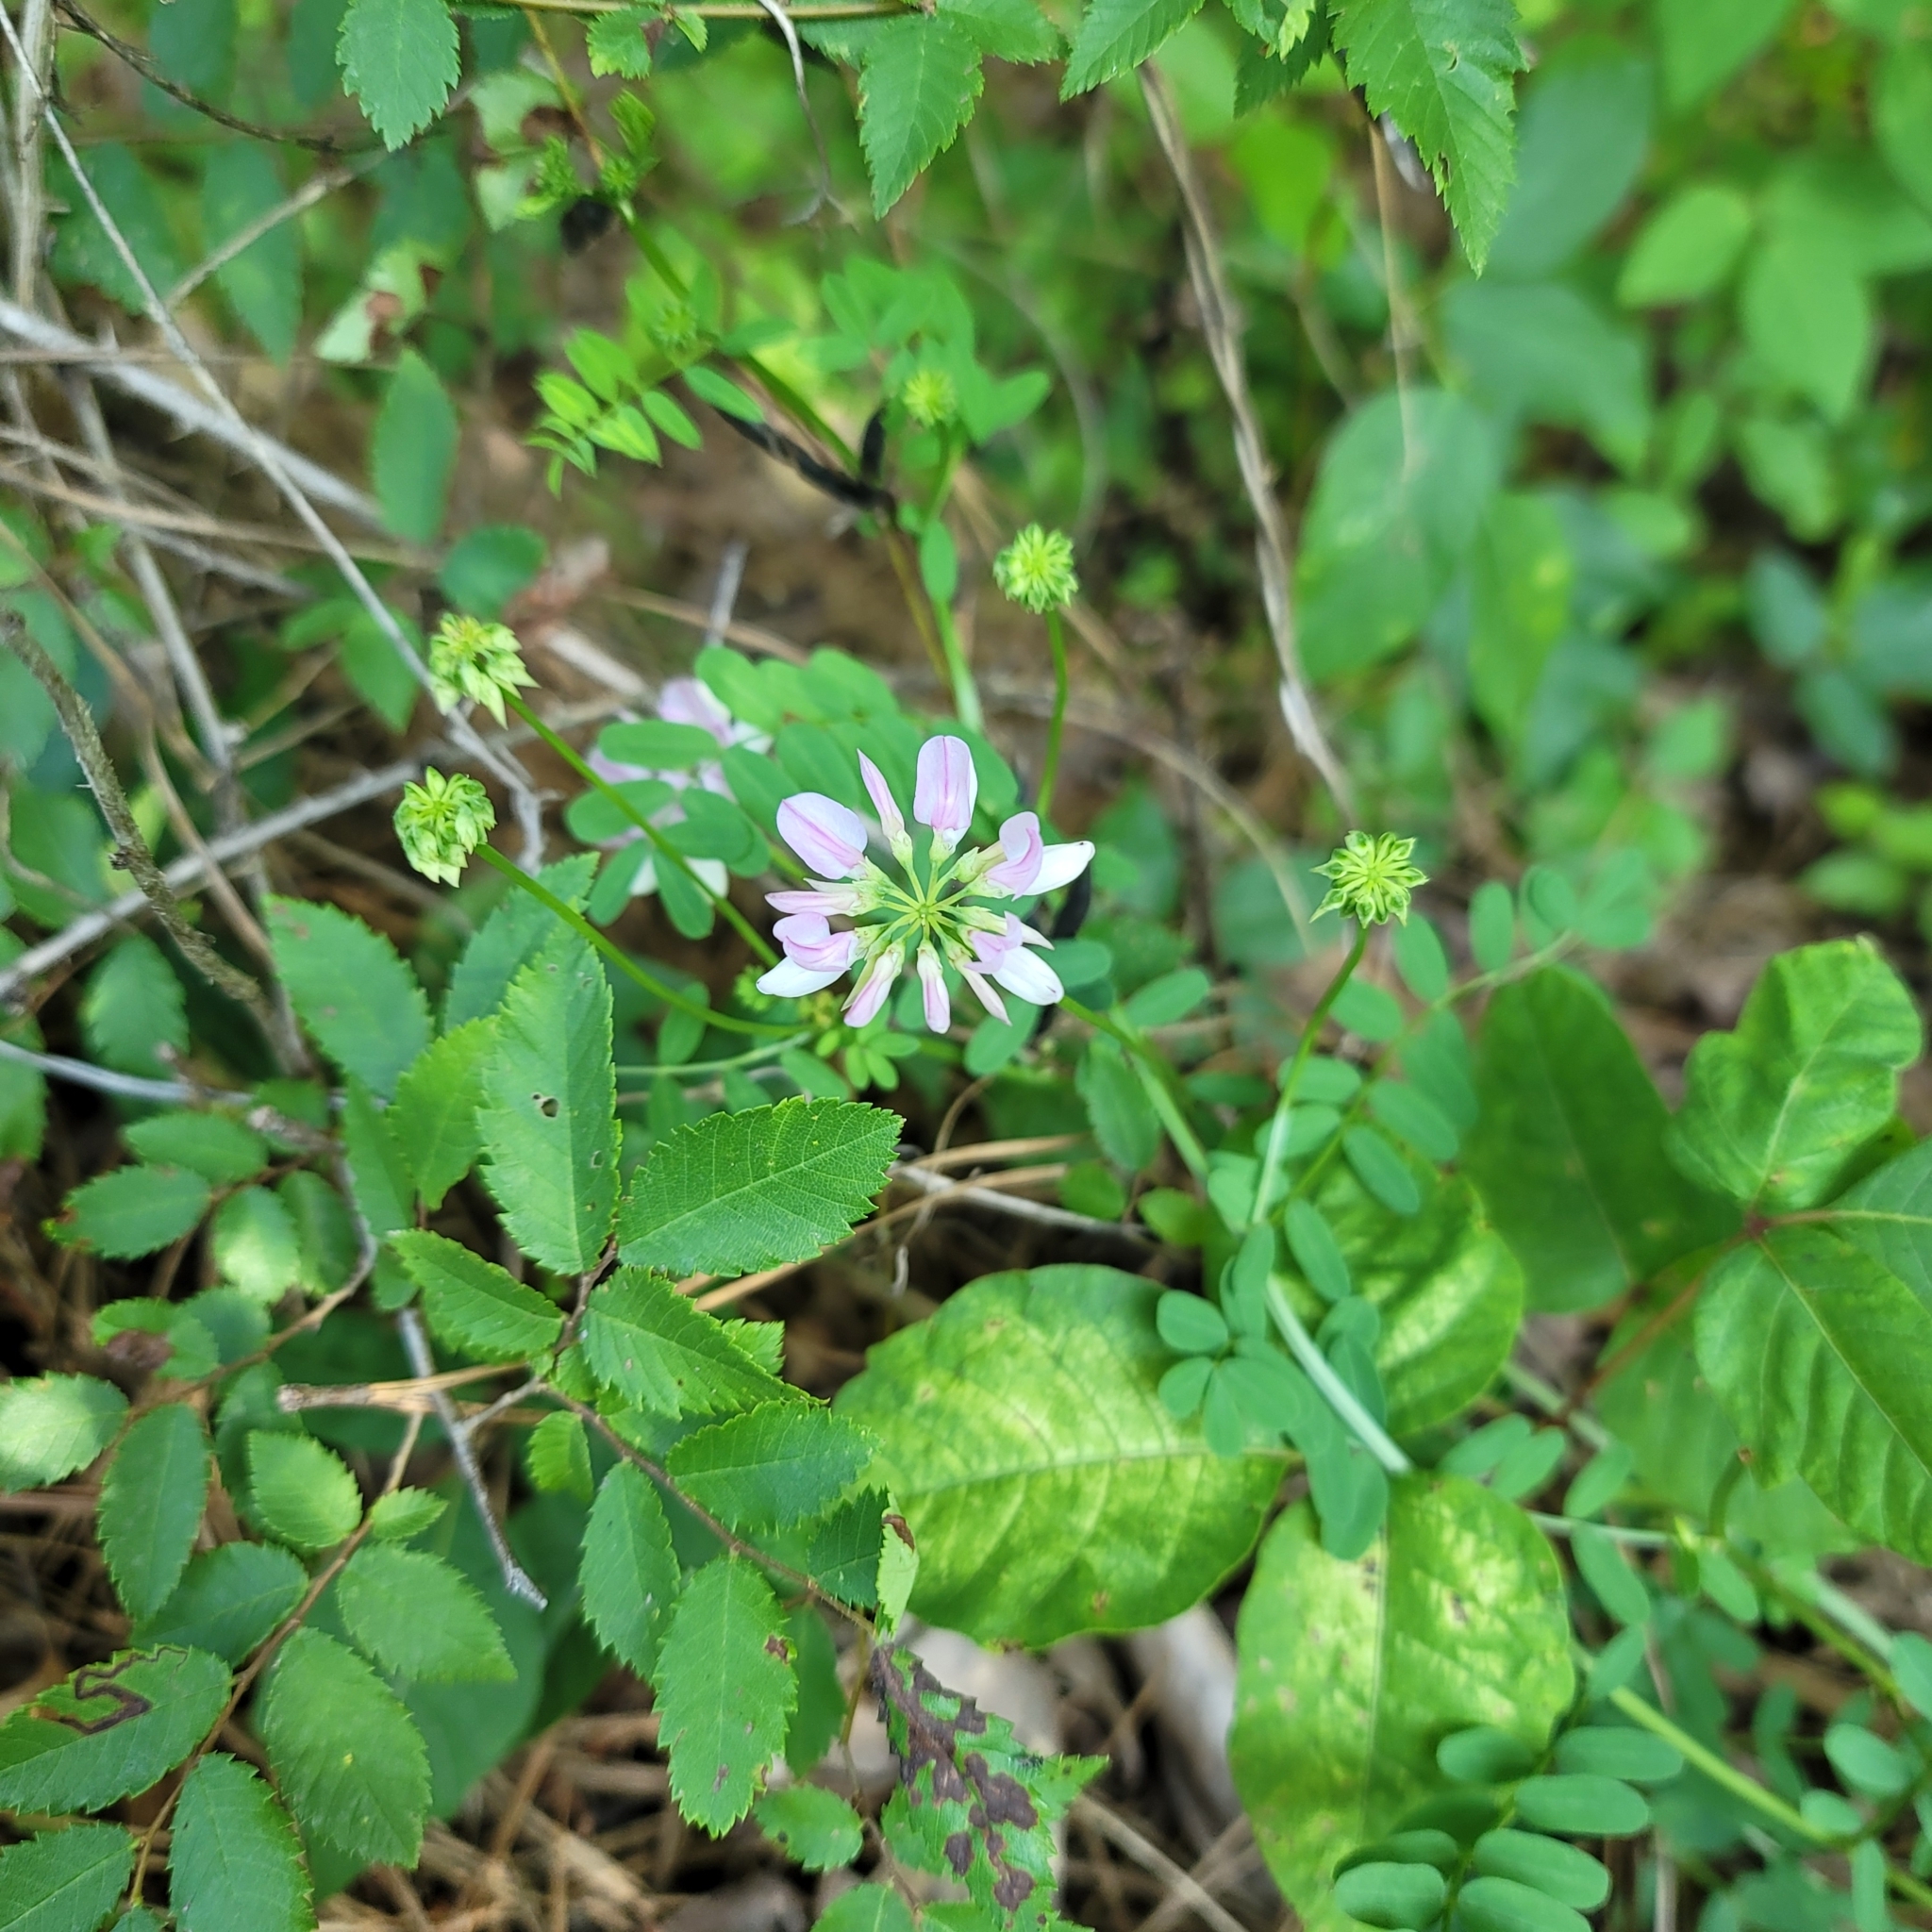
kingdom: Plantae
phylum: Tracheophyta
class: Magnoliopsida
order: Fabales
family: Fabaceae
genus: Coronilla
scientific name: Coronilla varia
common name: Crownvetch
